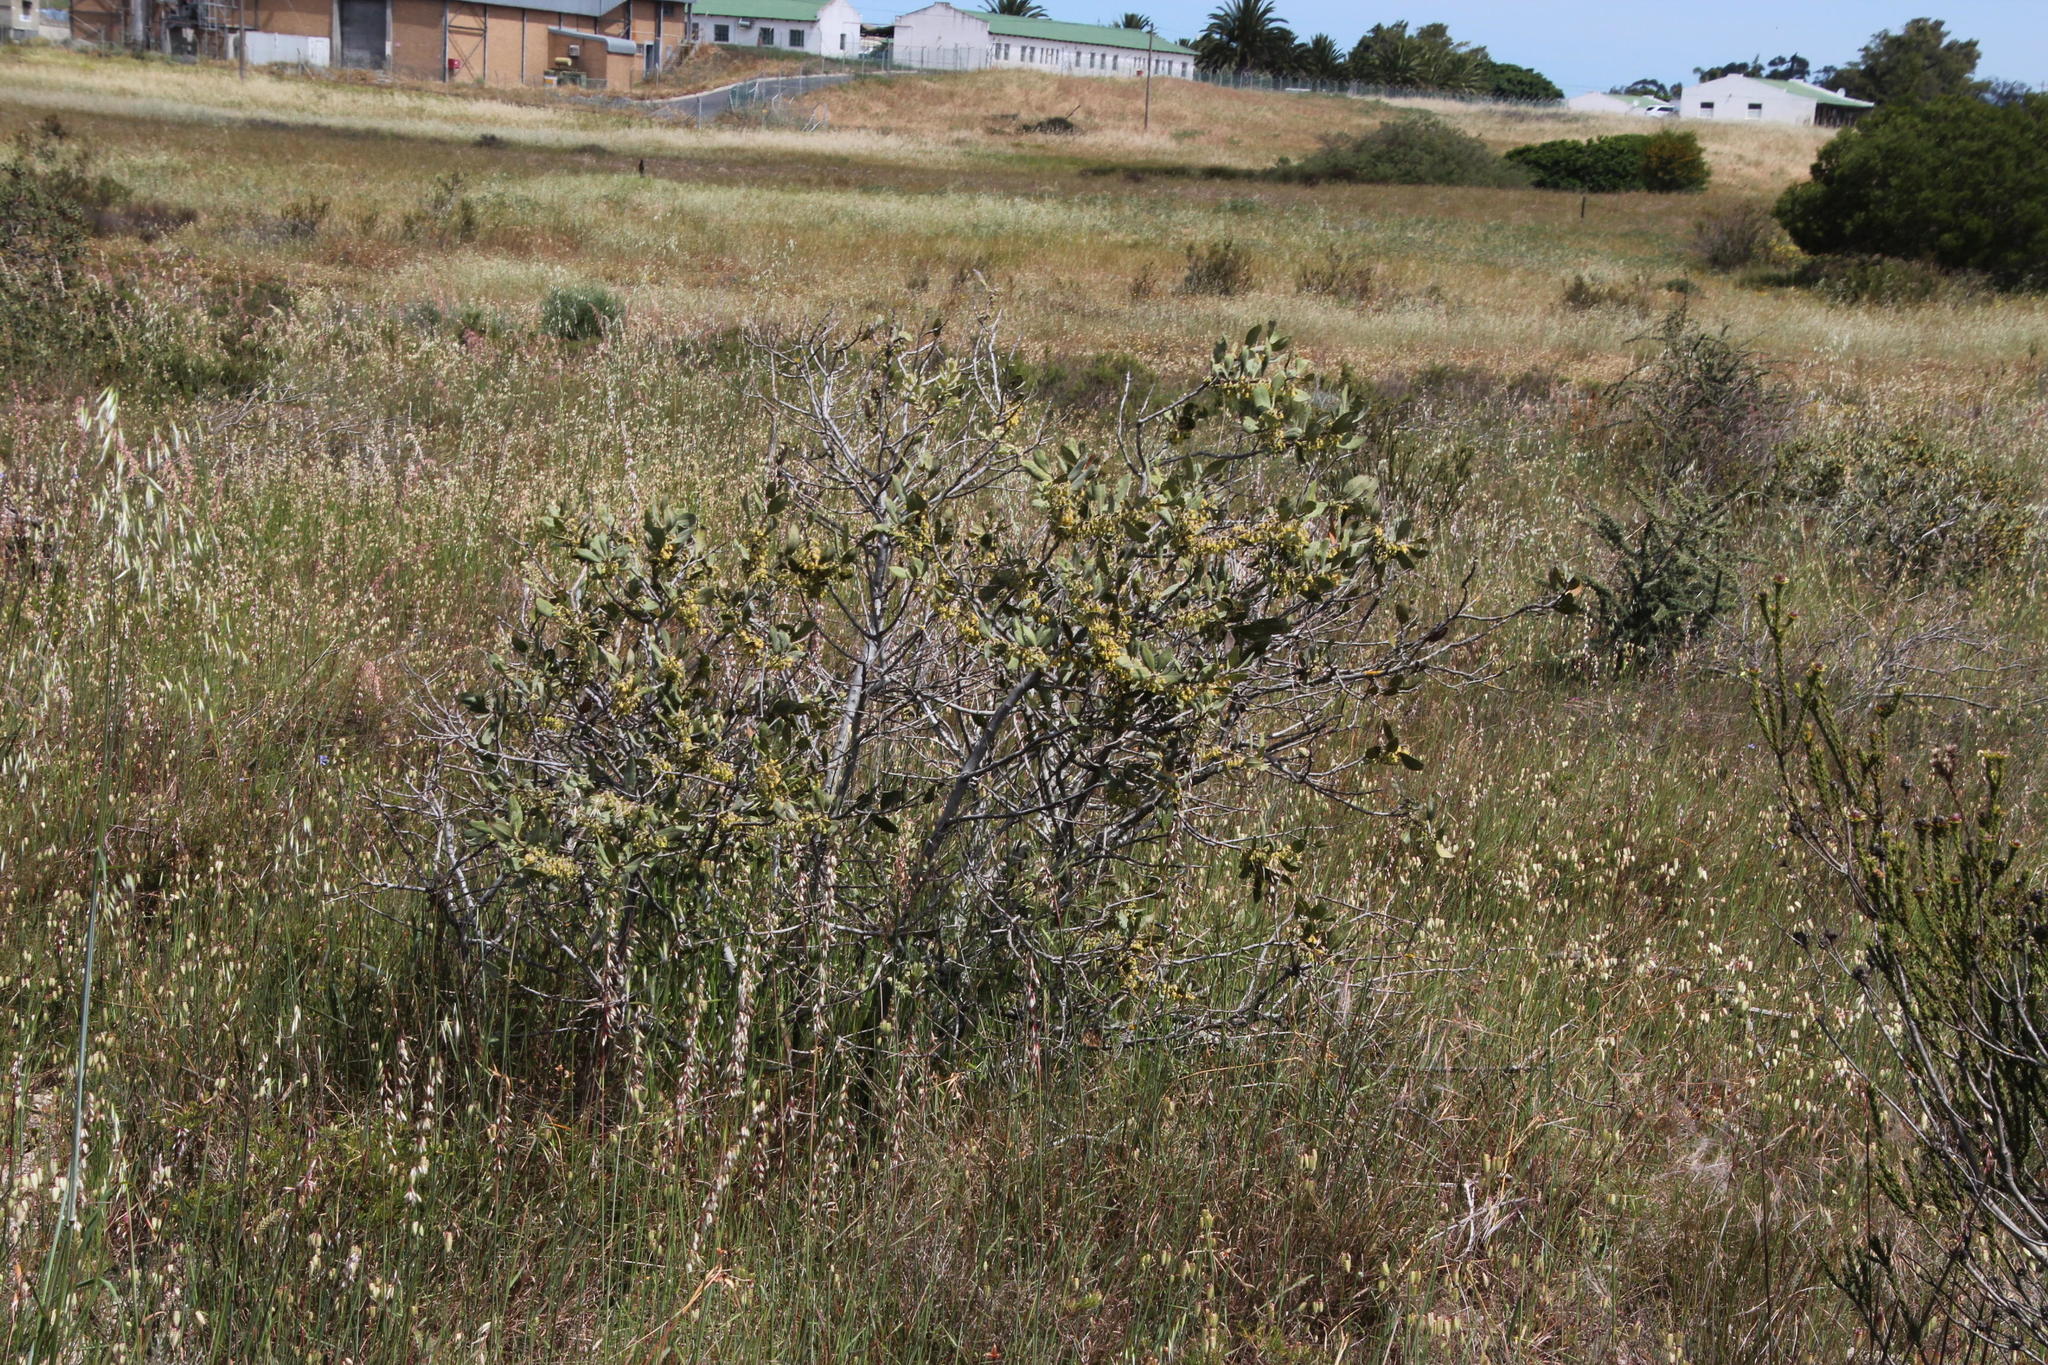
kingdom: Plantae
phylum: Tracheophyta
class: Magnoliopsida
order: Ericales
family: Ebenaceae
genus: Euclea
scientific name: Euclea tomentosa
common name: Honey guarri
